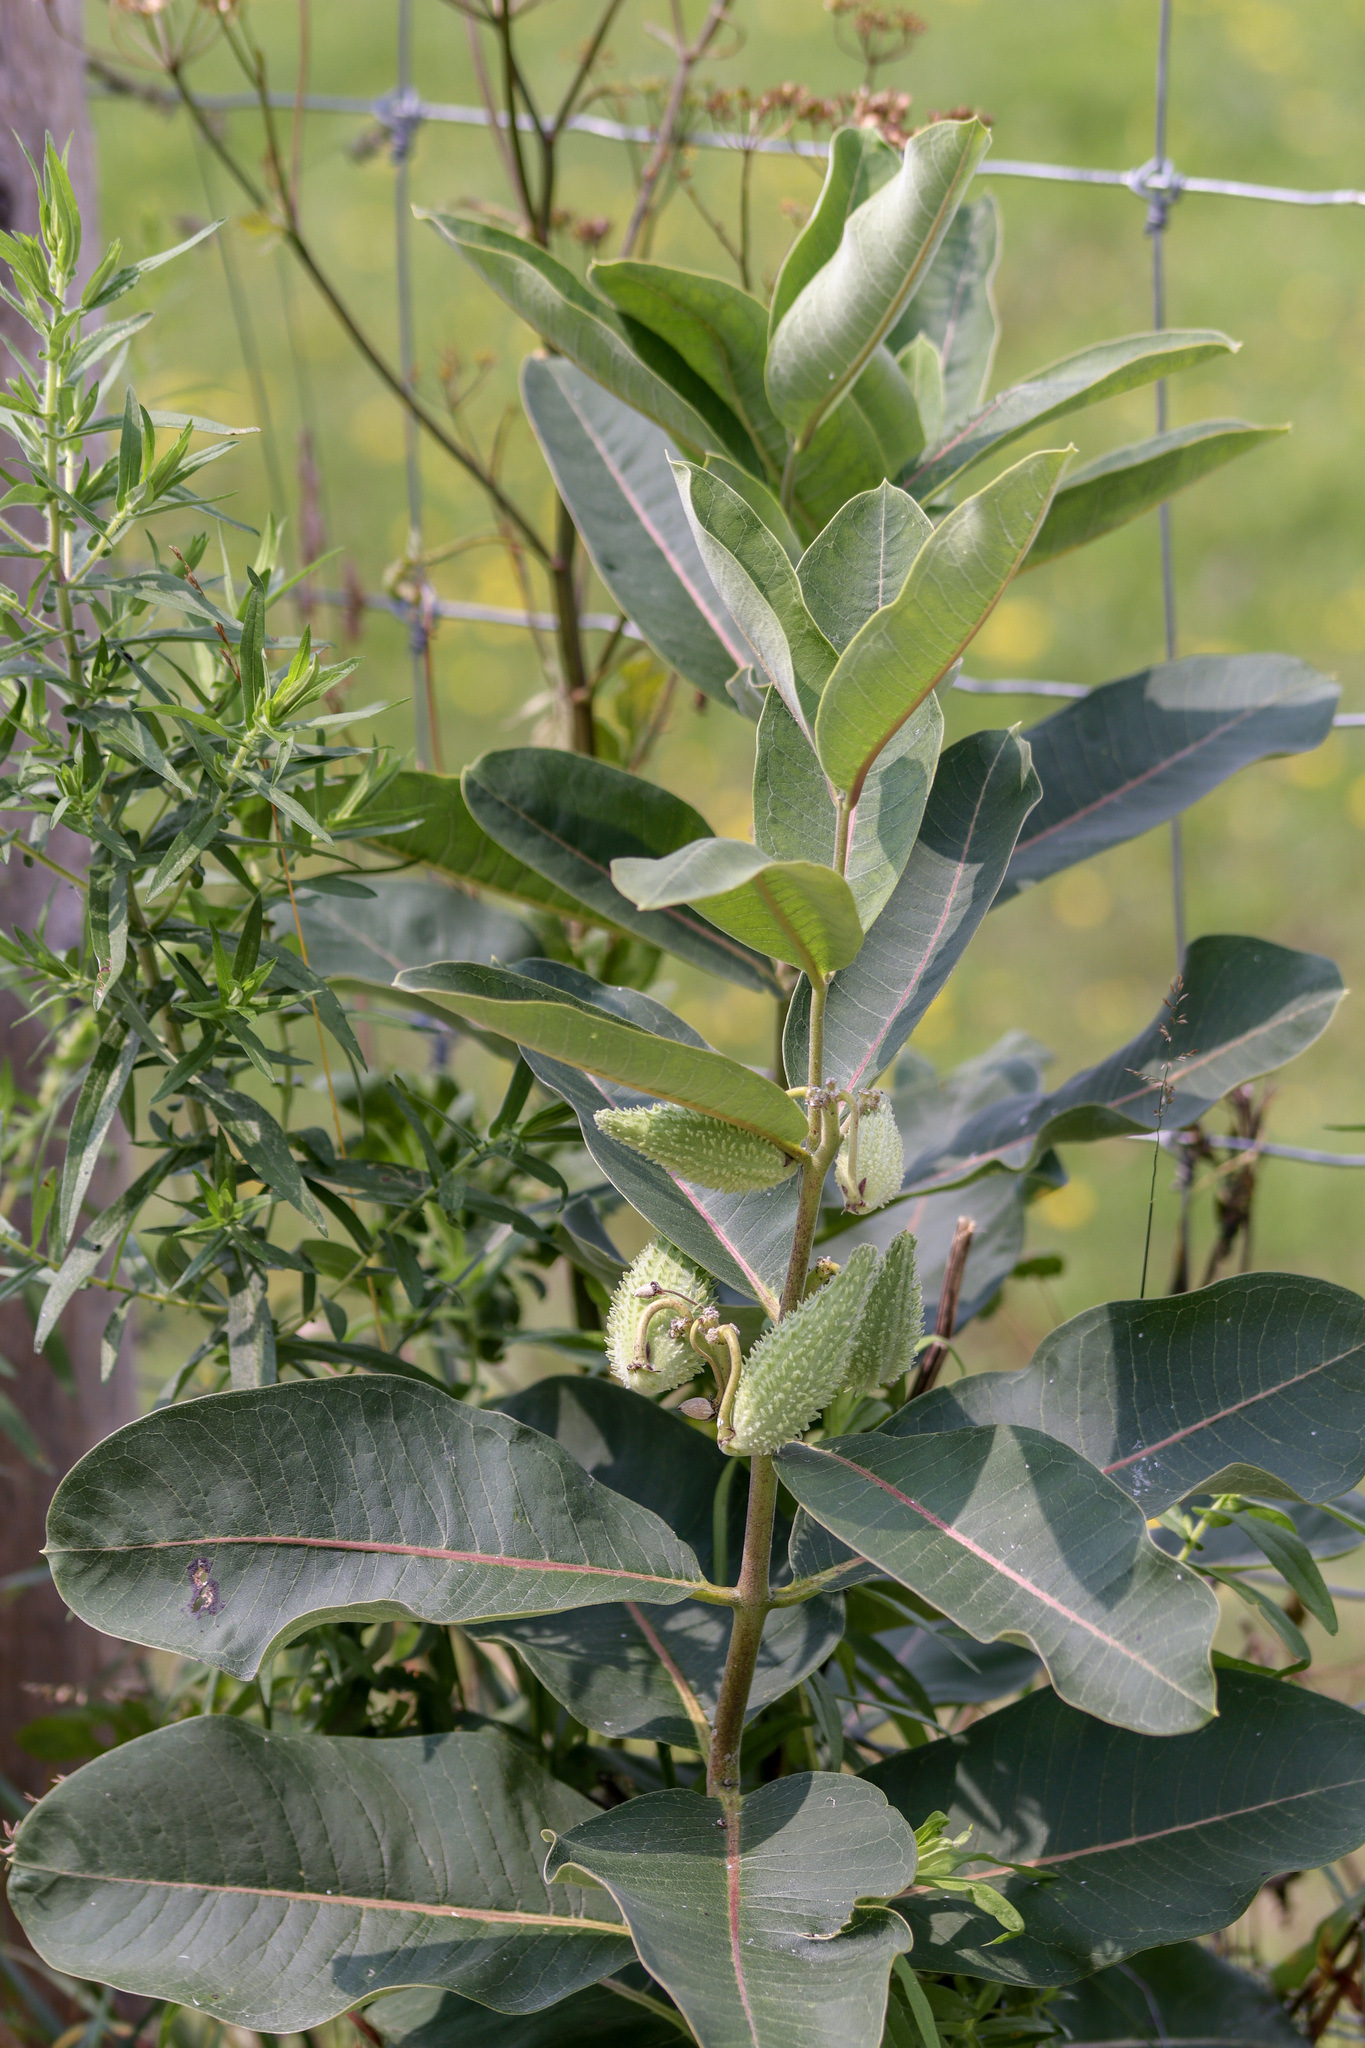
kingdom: Plantae
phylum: Tracheophyta
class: Magnoliopsida
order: Gentianales
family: Apocynaceae
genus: Asclepias
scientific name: Asclepias syriaca
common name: Common milkweed
